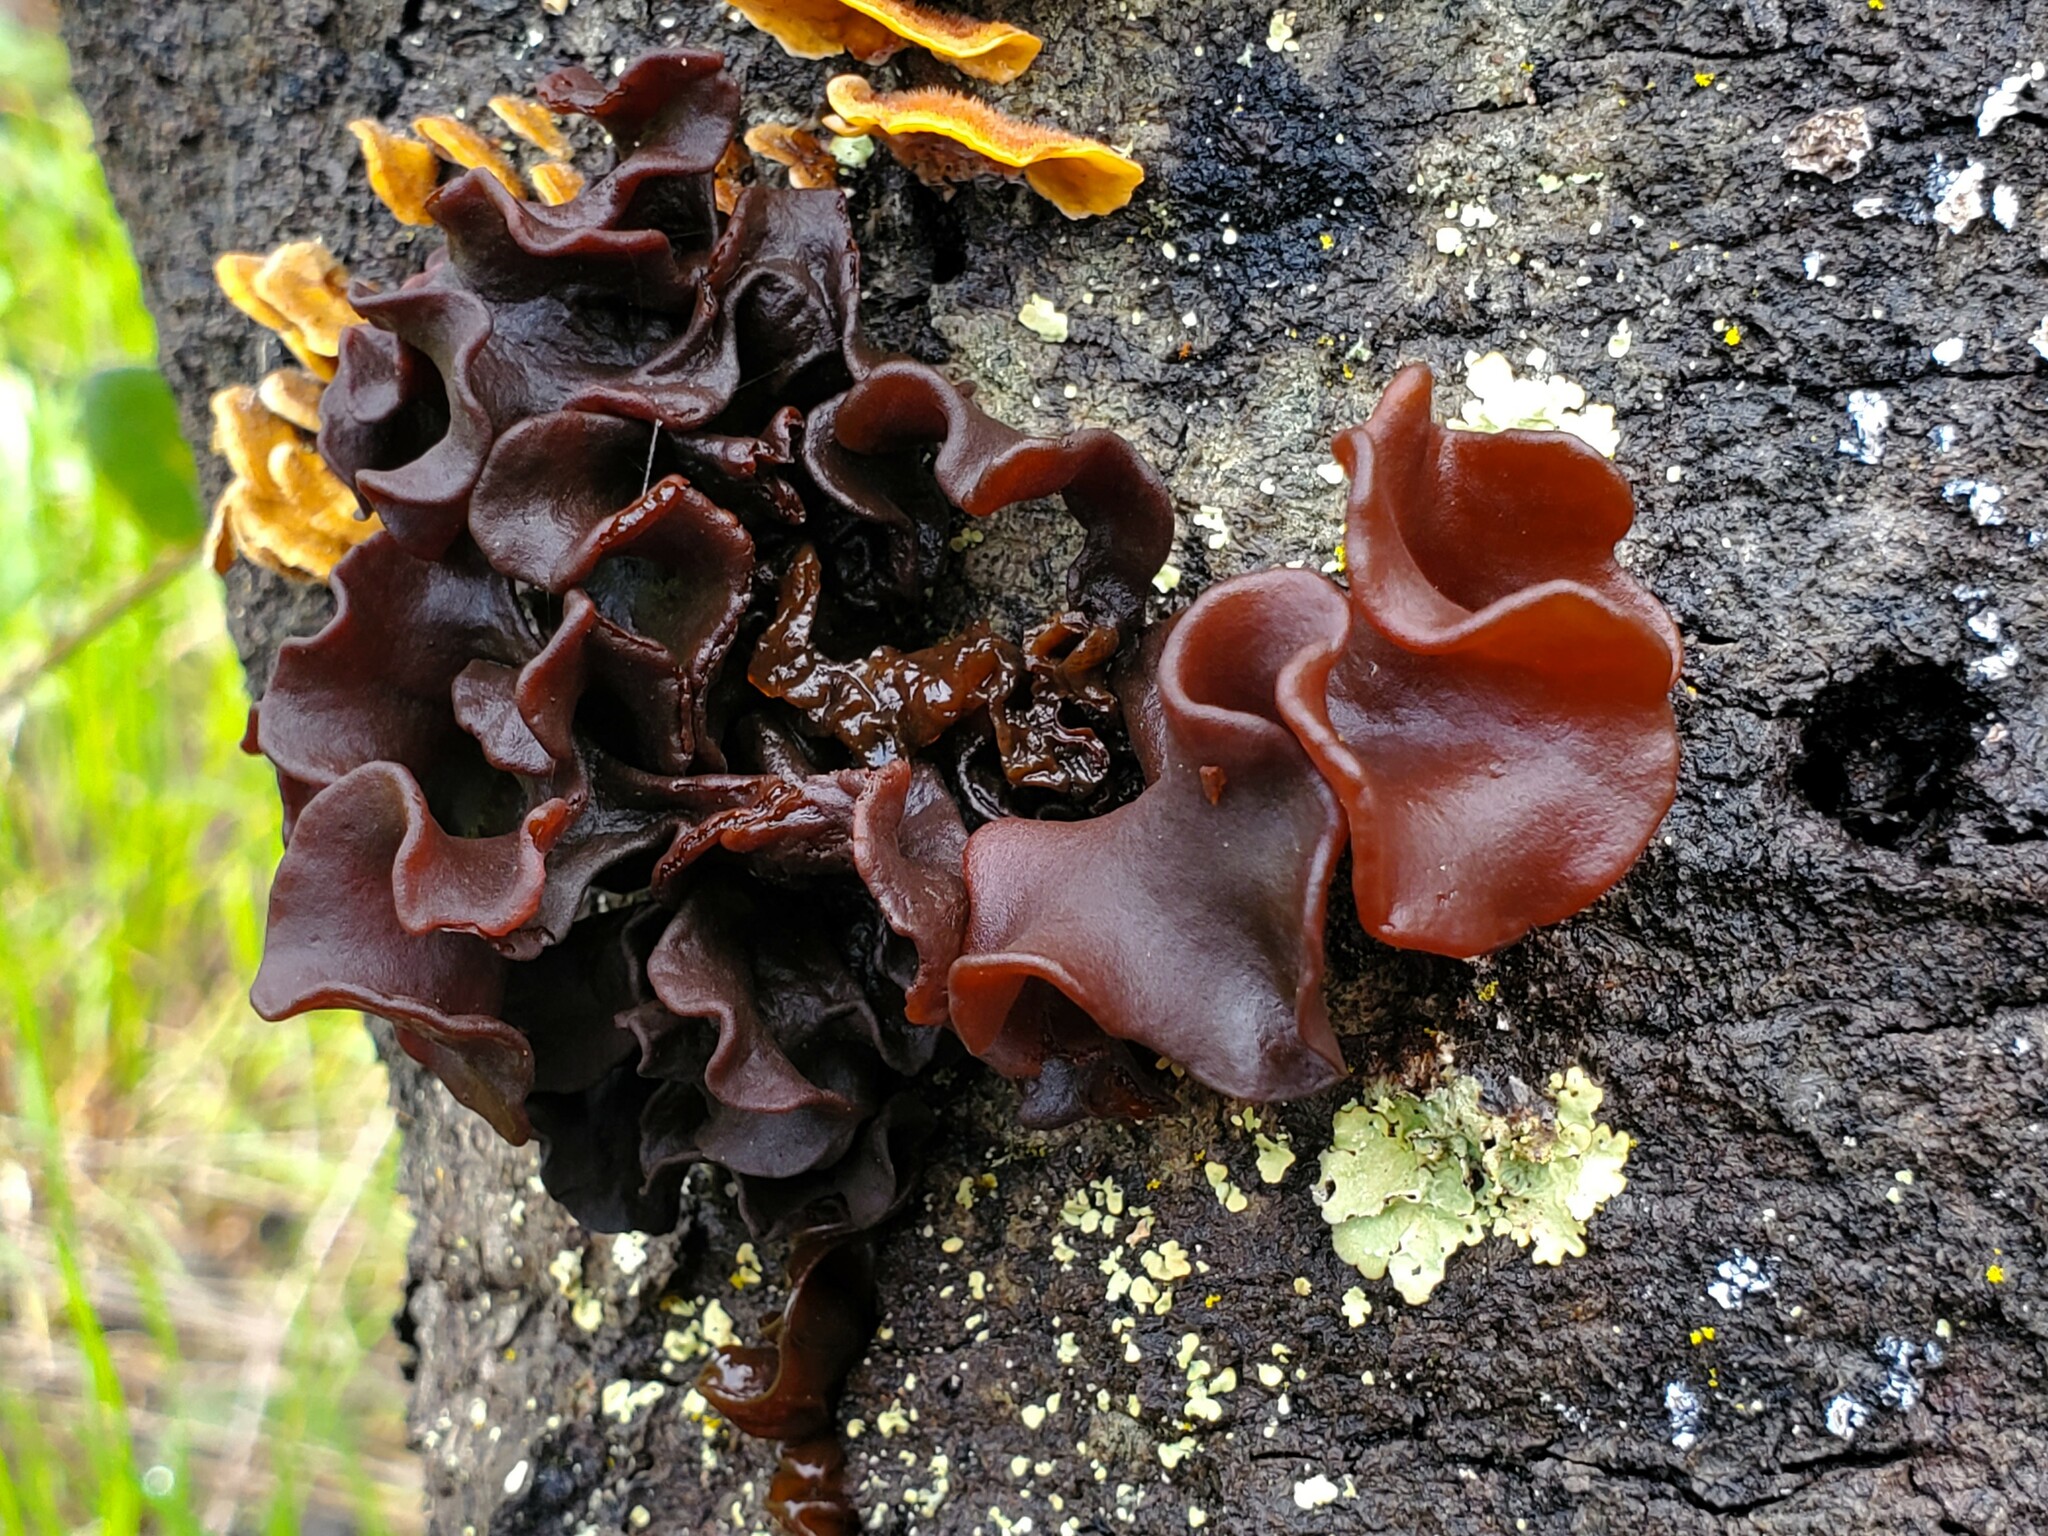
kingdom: Fungi
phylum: Basidiomycota
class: Tremellomycetes
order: Tremellales
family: Tremellaceae
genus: Phaeotremella
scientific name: Phaeotremella foliacea
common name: Leafy brain
